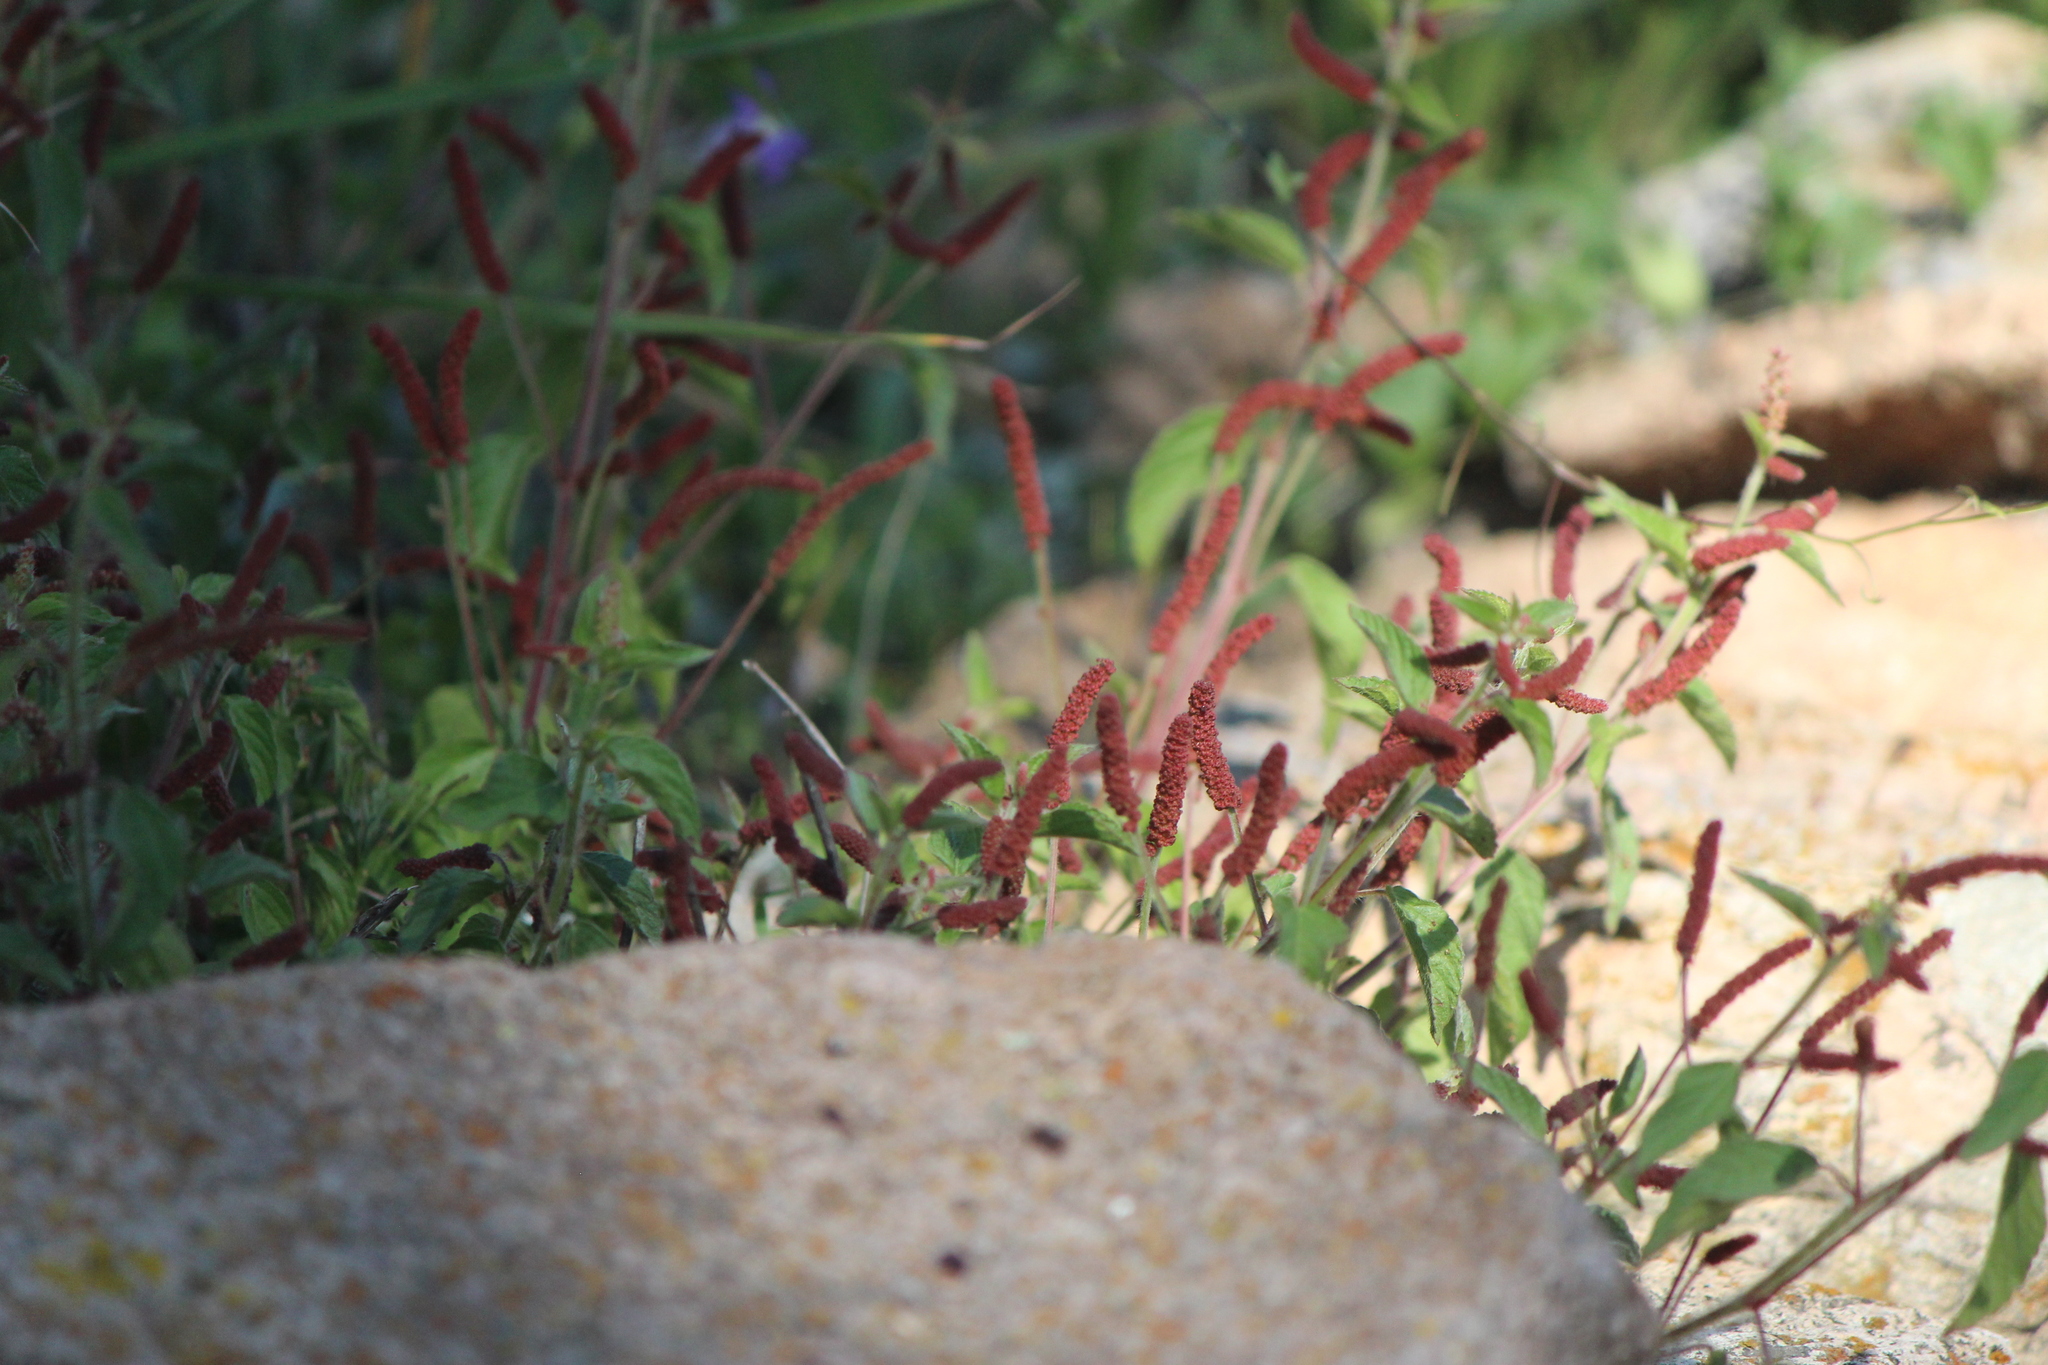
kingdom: Plantae
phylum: Tracheophyta
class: Magnoliopsida
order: Malpighiales
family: Euphorbiaceae
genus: Acalypha
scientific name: Acalypha monostachya
